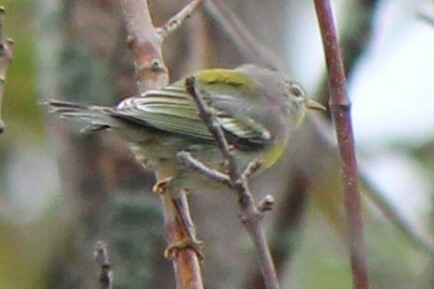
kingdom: Animalia
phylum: Chordata
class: Aves
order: Passeriformes
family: Parulidae
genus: Setophaga
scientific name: Setophaga americana
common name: Northern parula
